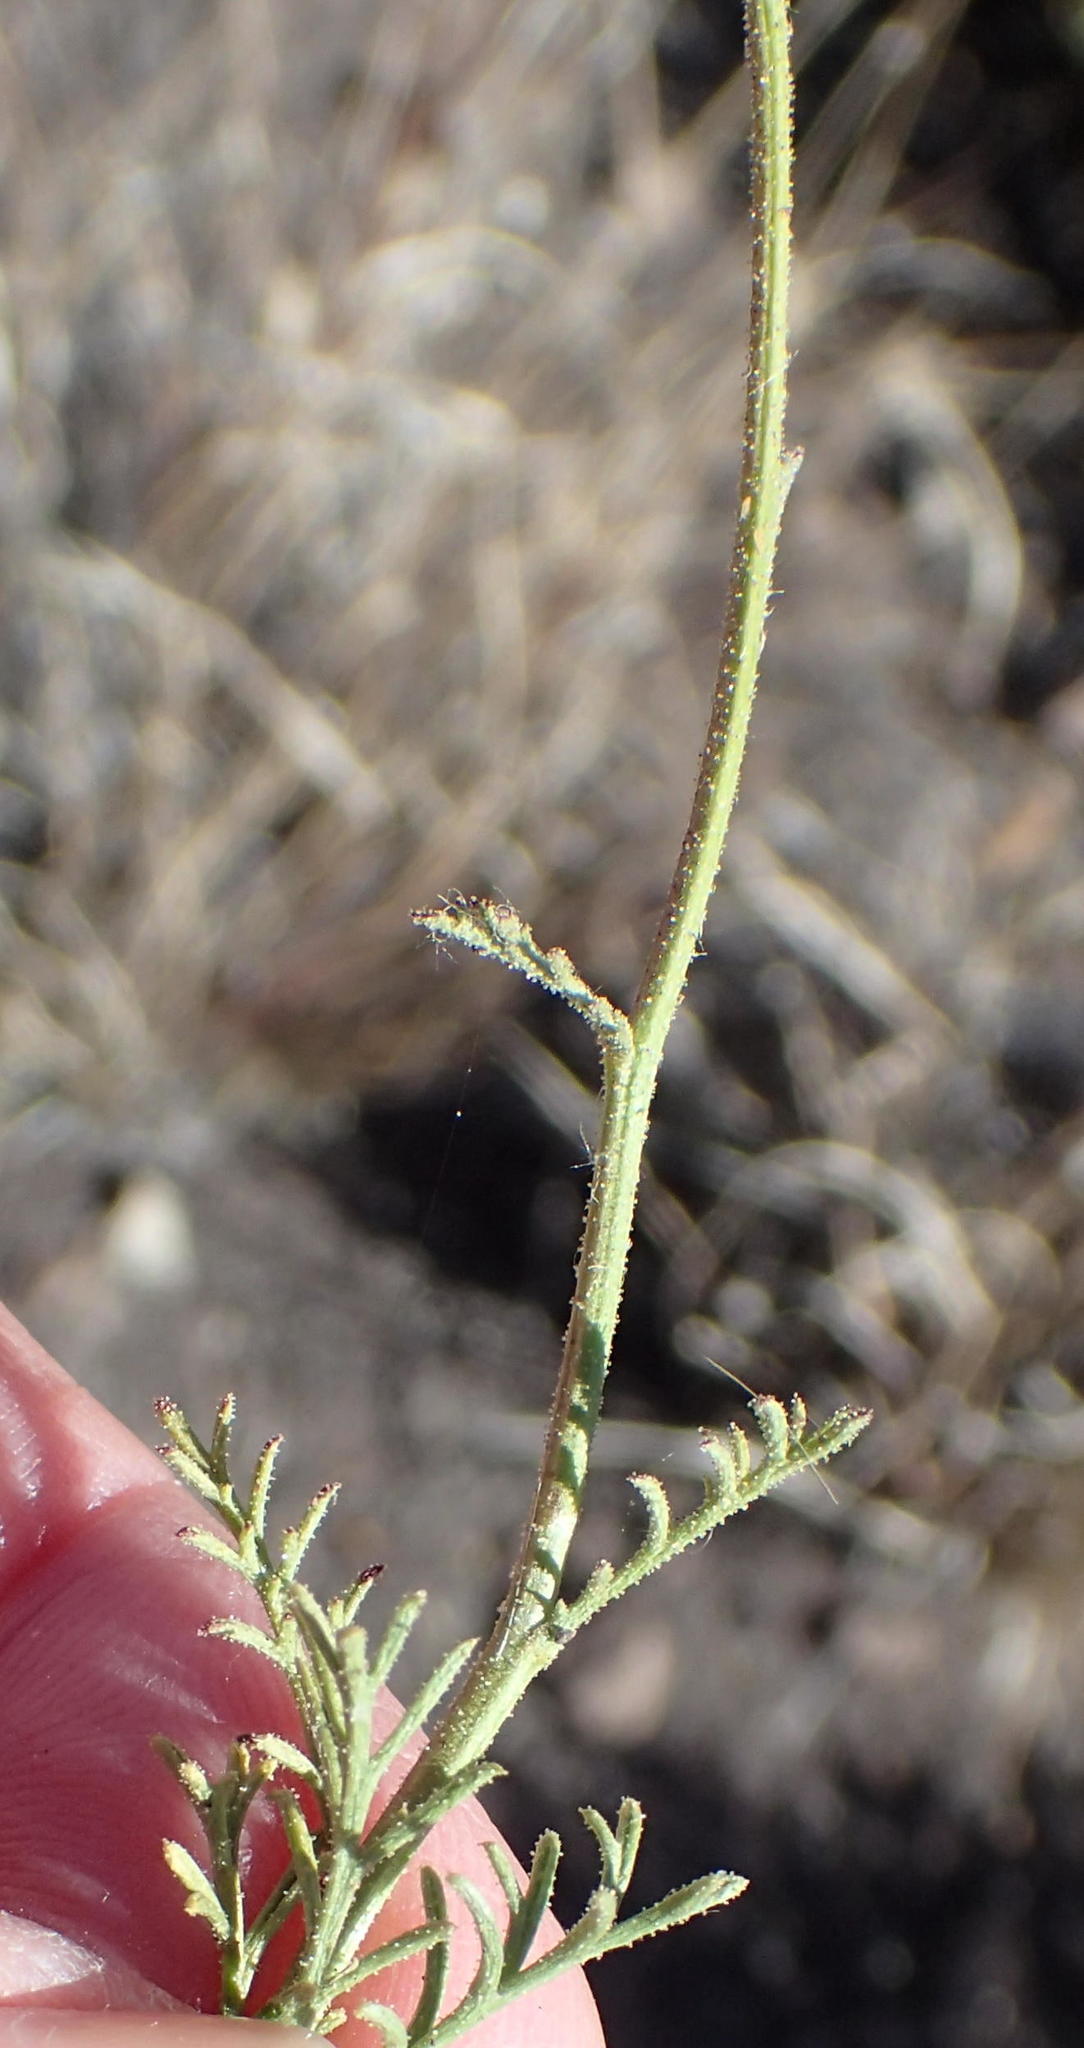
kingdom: Plantae
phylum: Tracheophyta
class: Magnoliopsida
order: Asterales
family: Asteraceae
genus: Garuleum
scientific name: Garuleum bipinnatum
